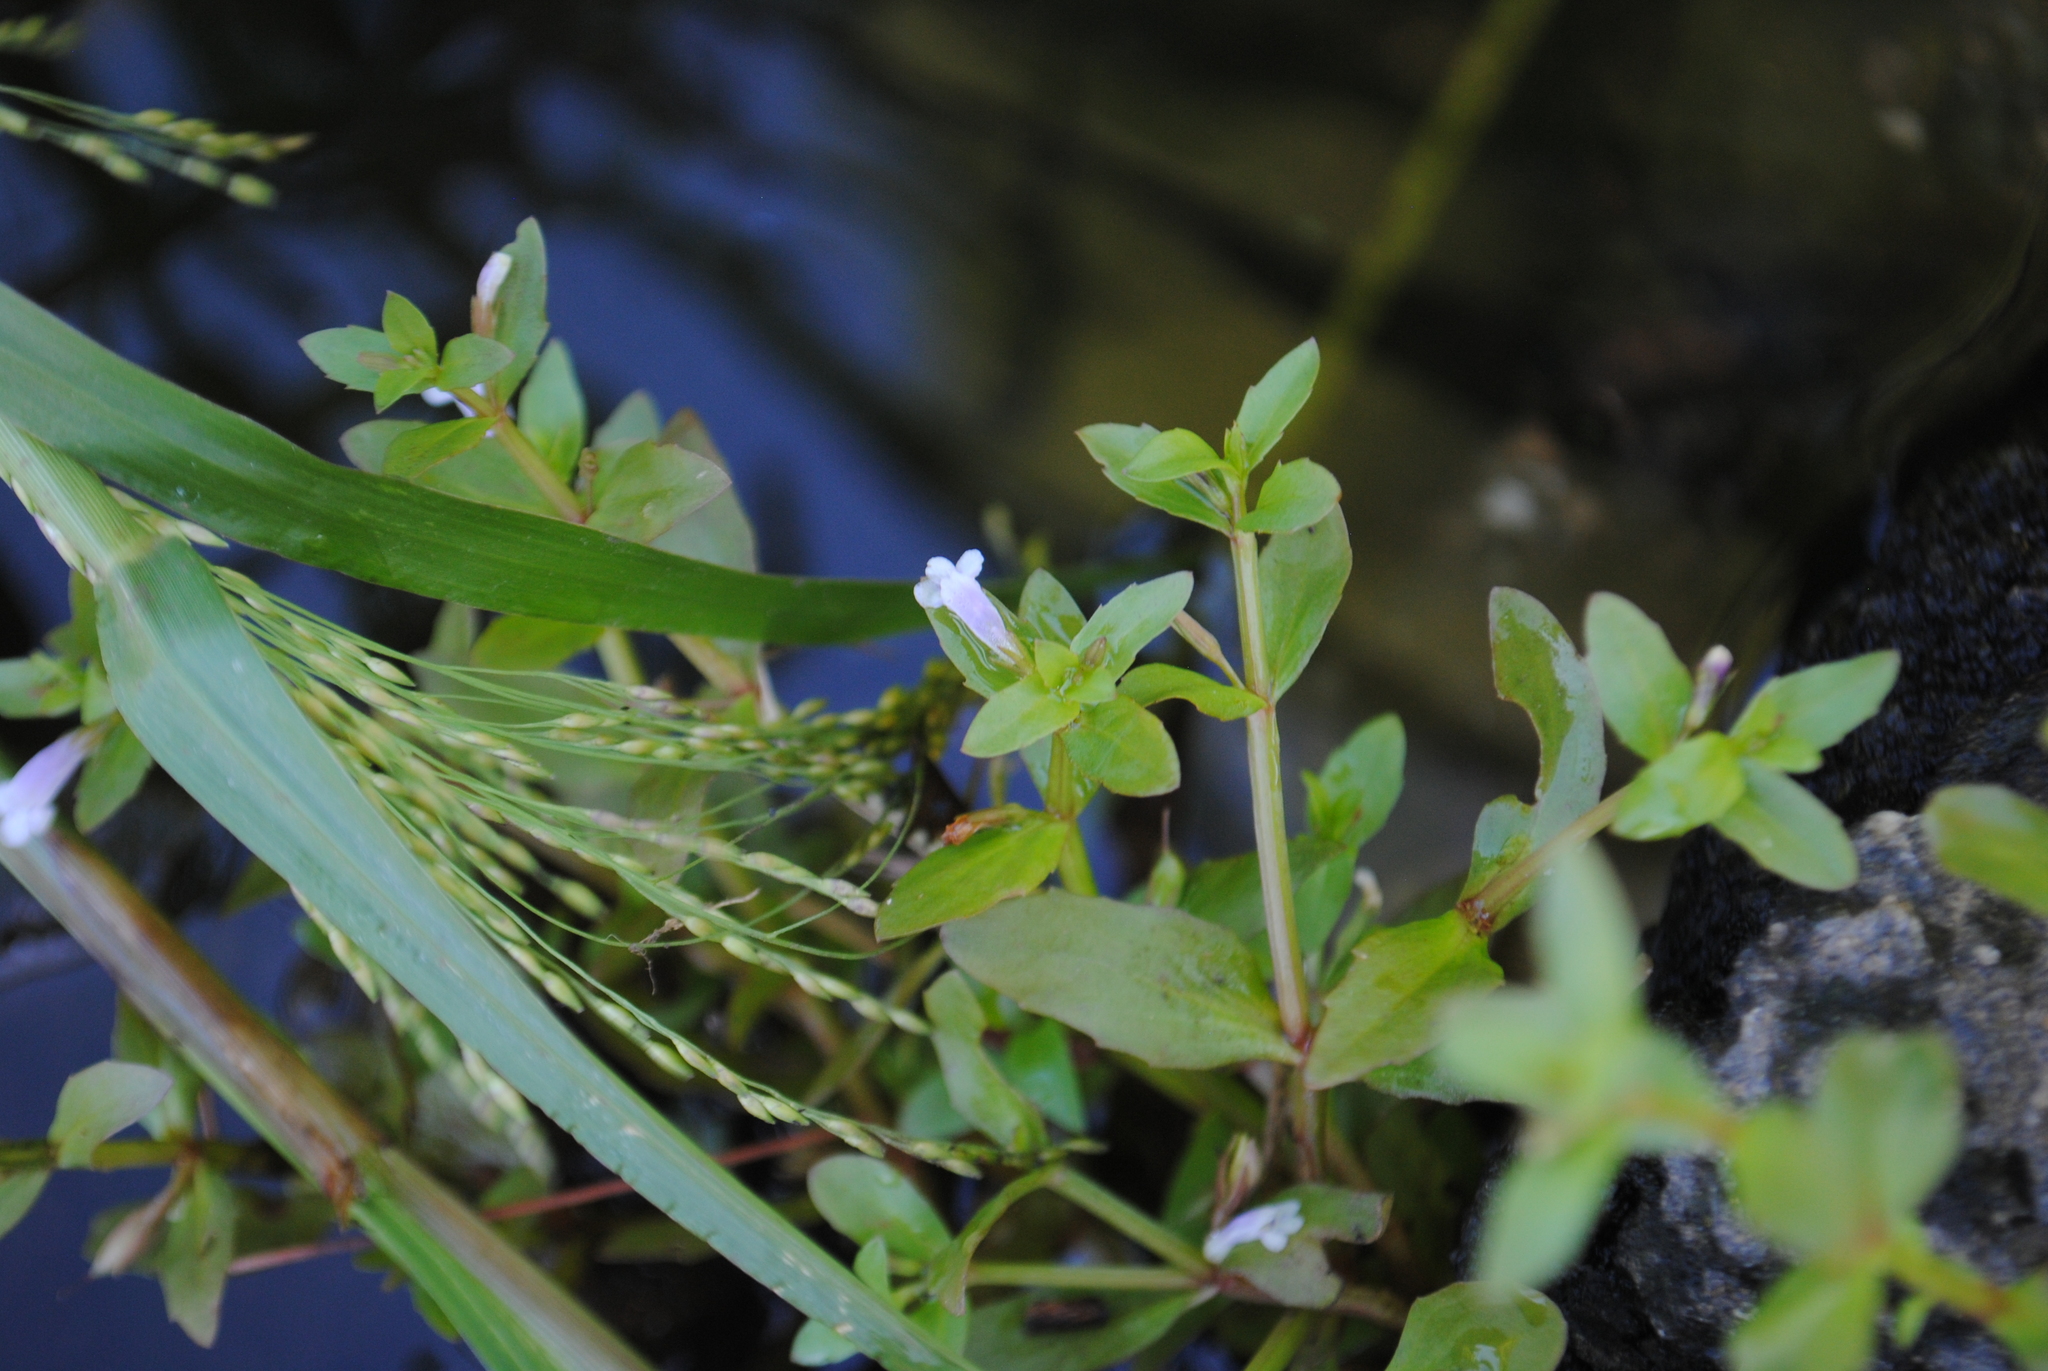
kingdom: Plantae
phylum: Tracheophyta
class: Magnoliopsida
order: Lamiales
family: Linderniaceae
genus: Lindernia
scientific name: Lindernia dubia
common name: Annual false pimpernel
